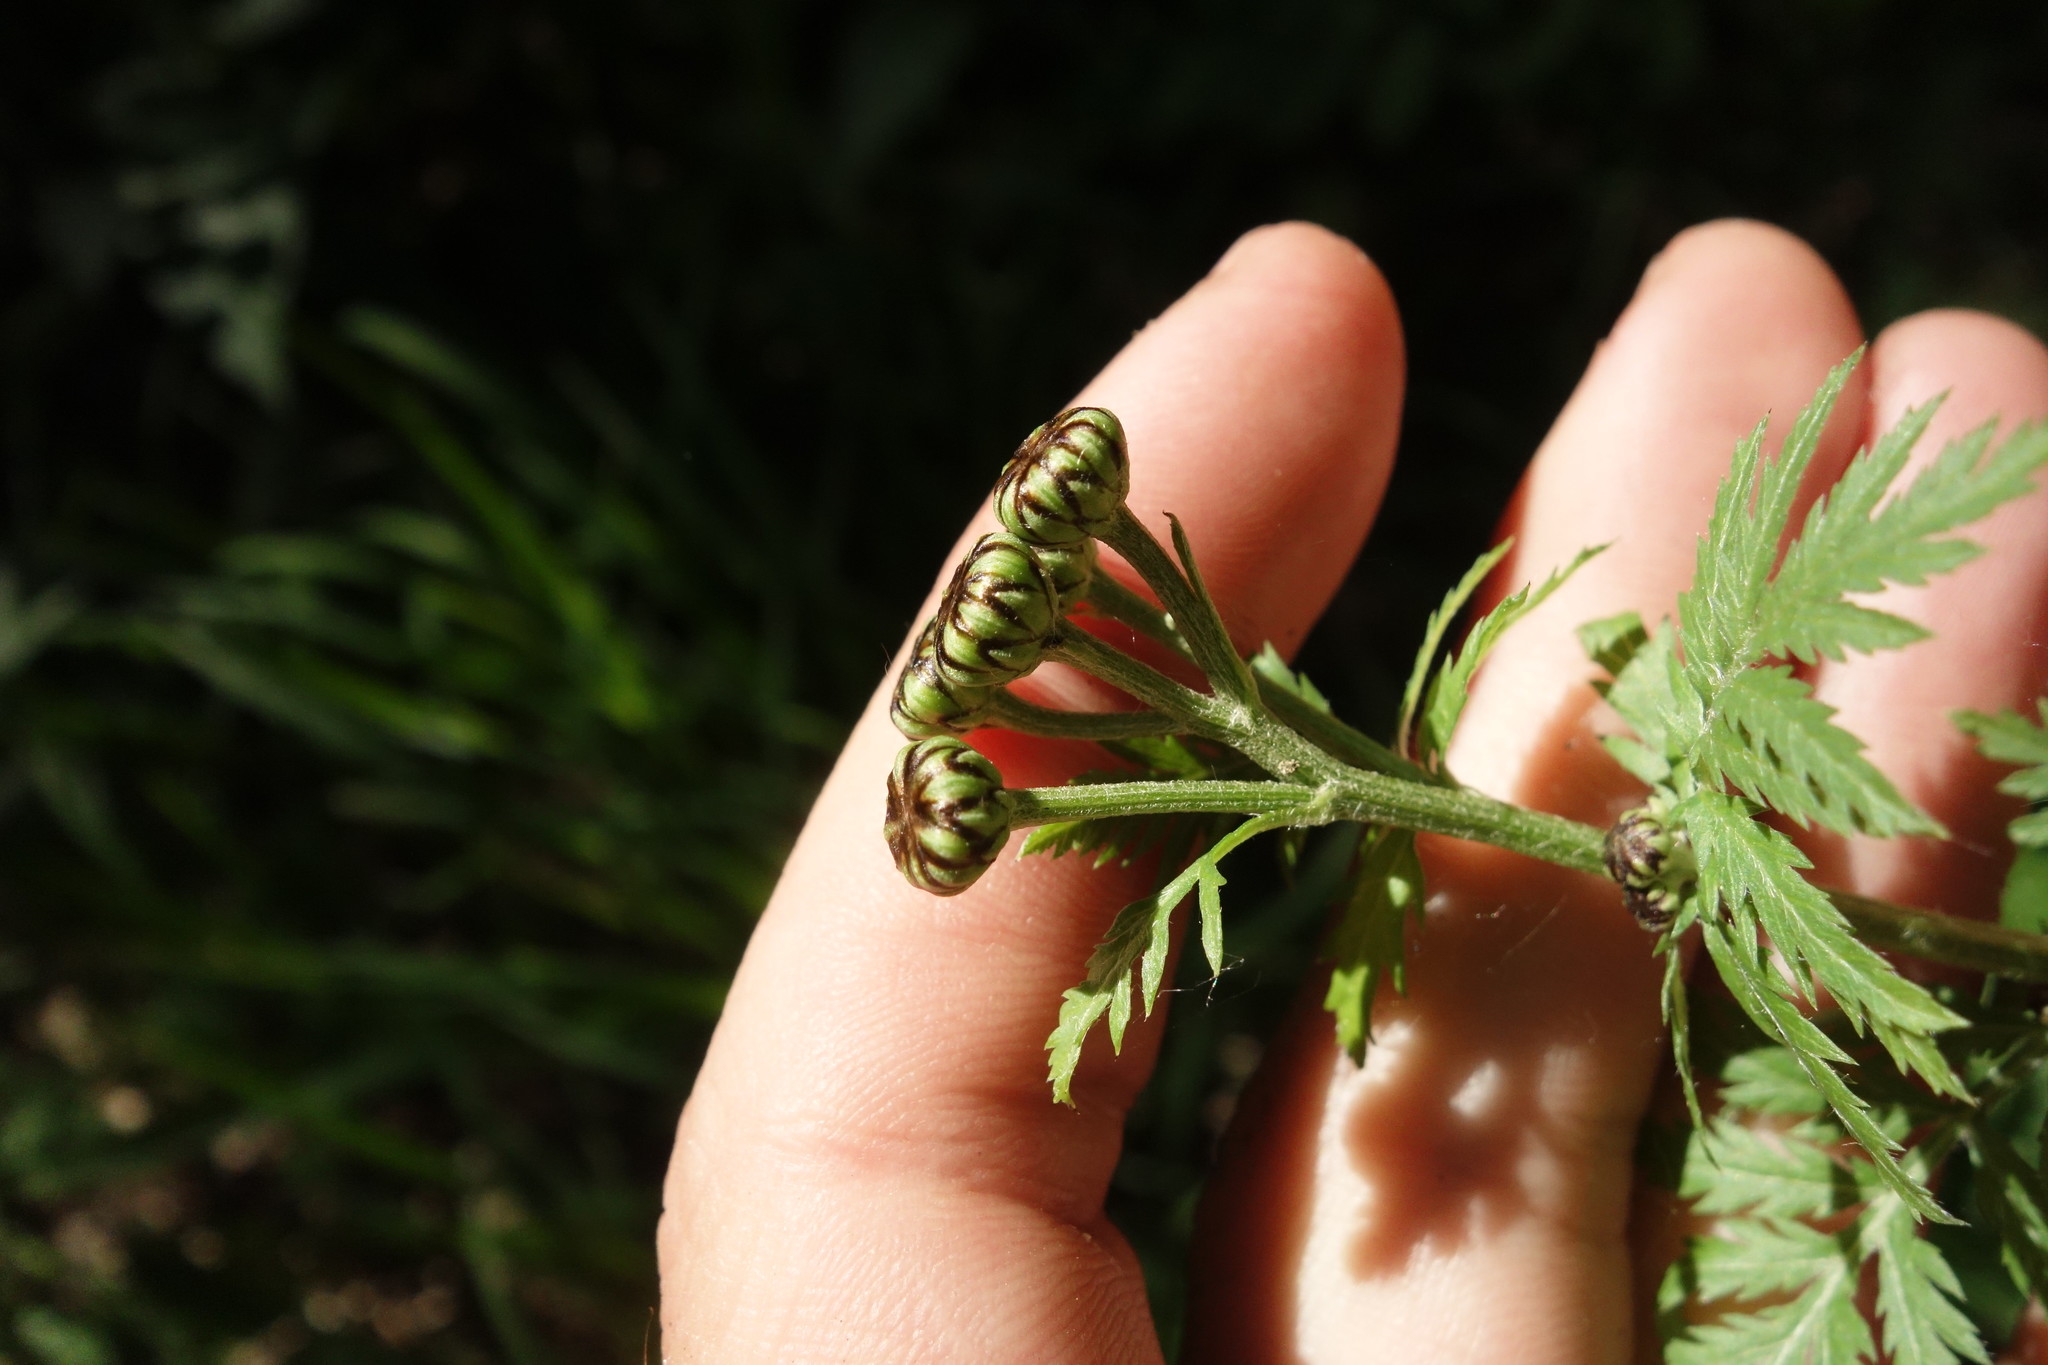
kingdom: Plantae
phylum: Tracheophyta
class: Magnoliopsida
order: Asterales
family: Asteraceae
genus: Tanacetum
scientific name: Tanacetum corymbosum
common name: Scentless feverfew
